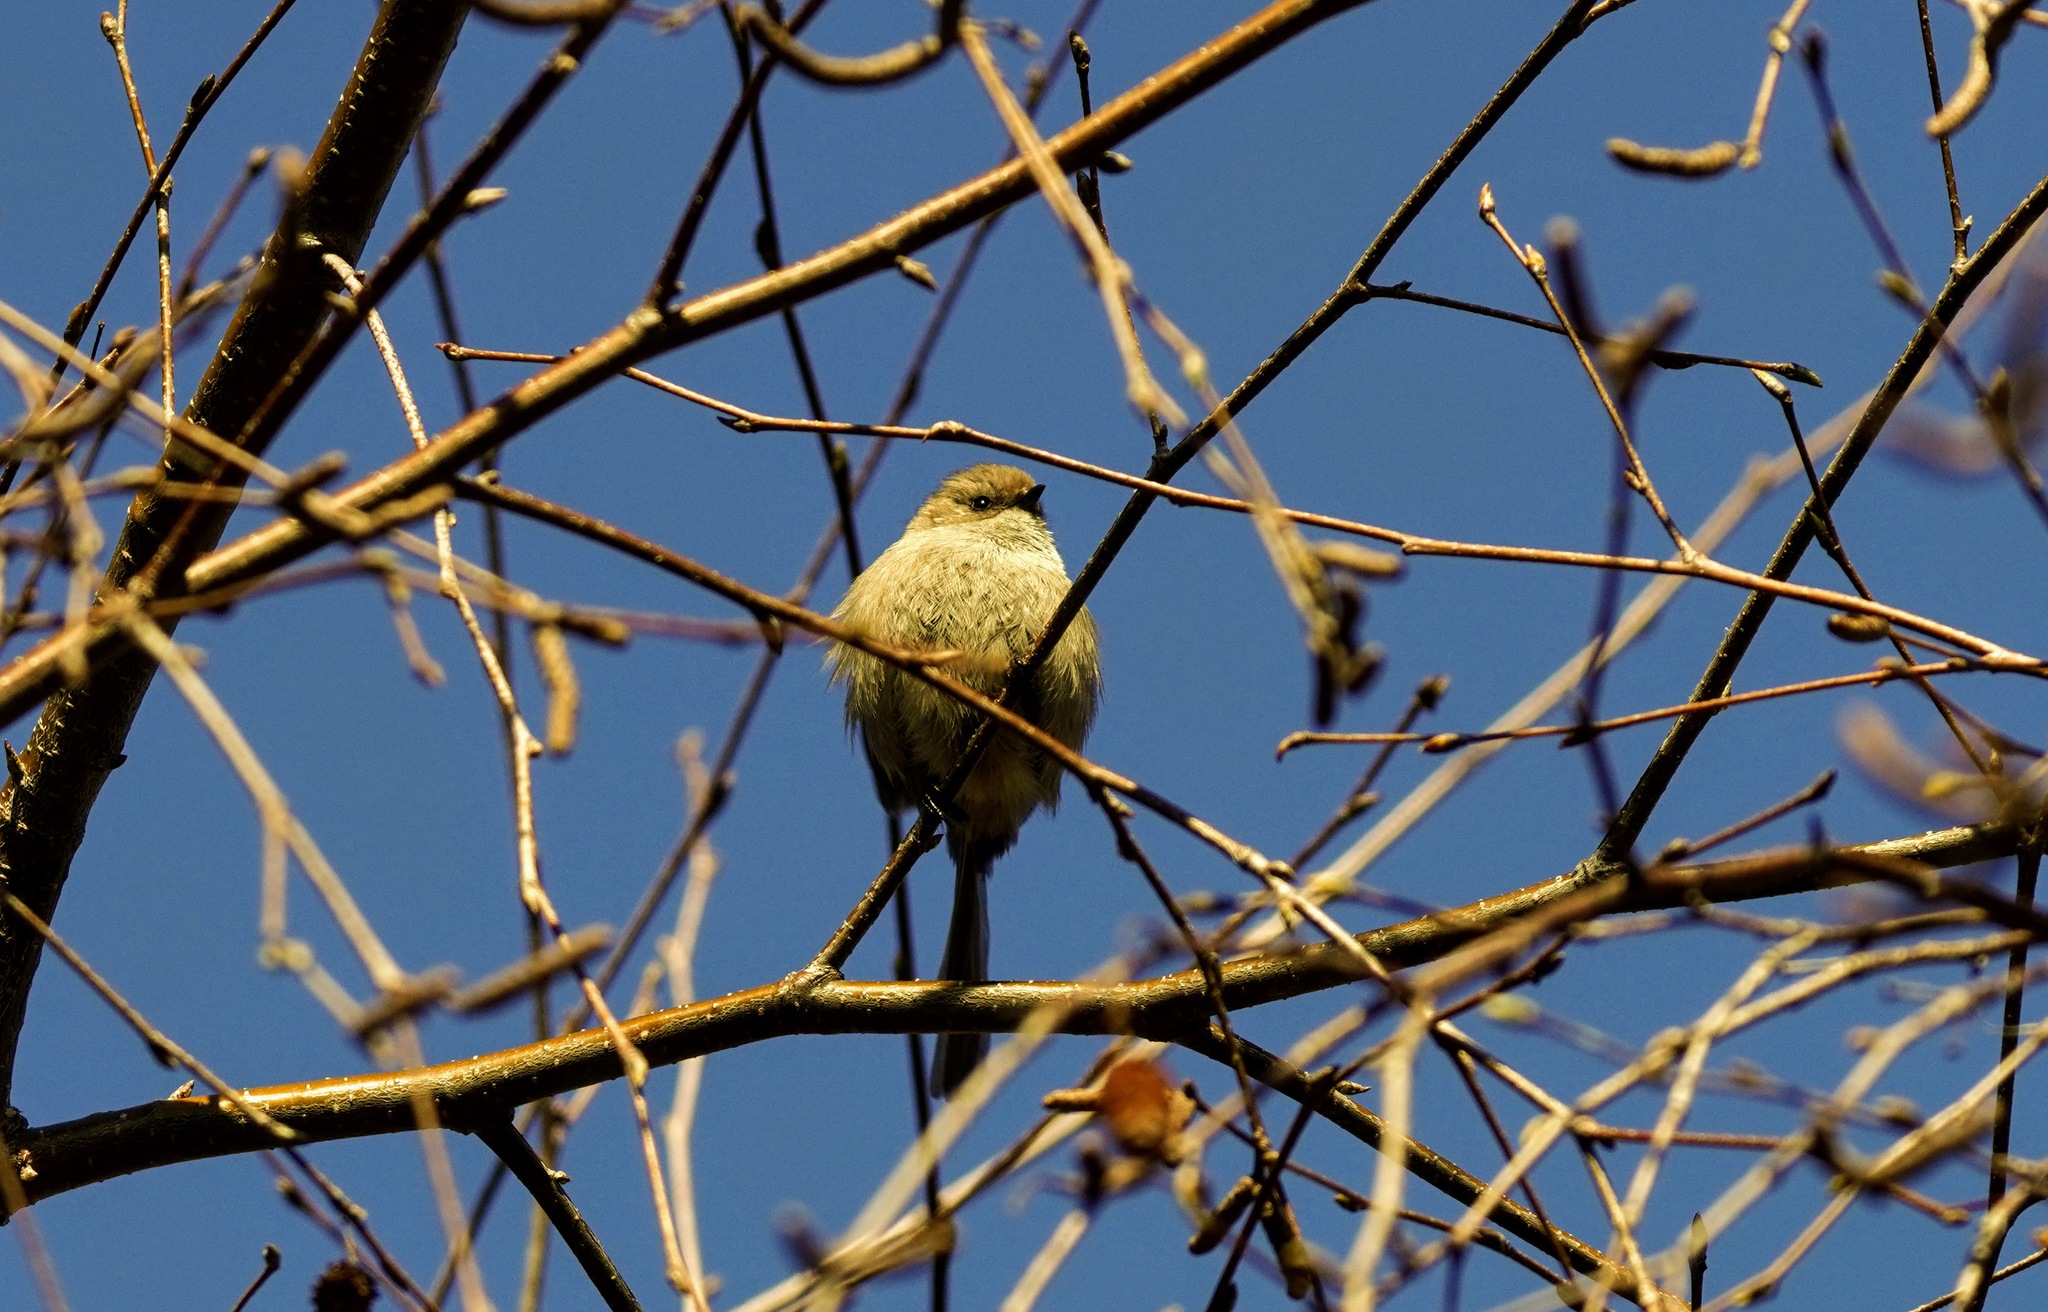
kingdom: Animalia
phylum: Chordata
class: Aves
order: Passeriformes
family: Aegithalidae
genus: Psaltriparus
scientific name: Psaltriparus minimus
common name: American bushtit
